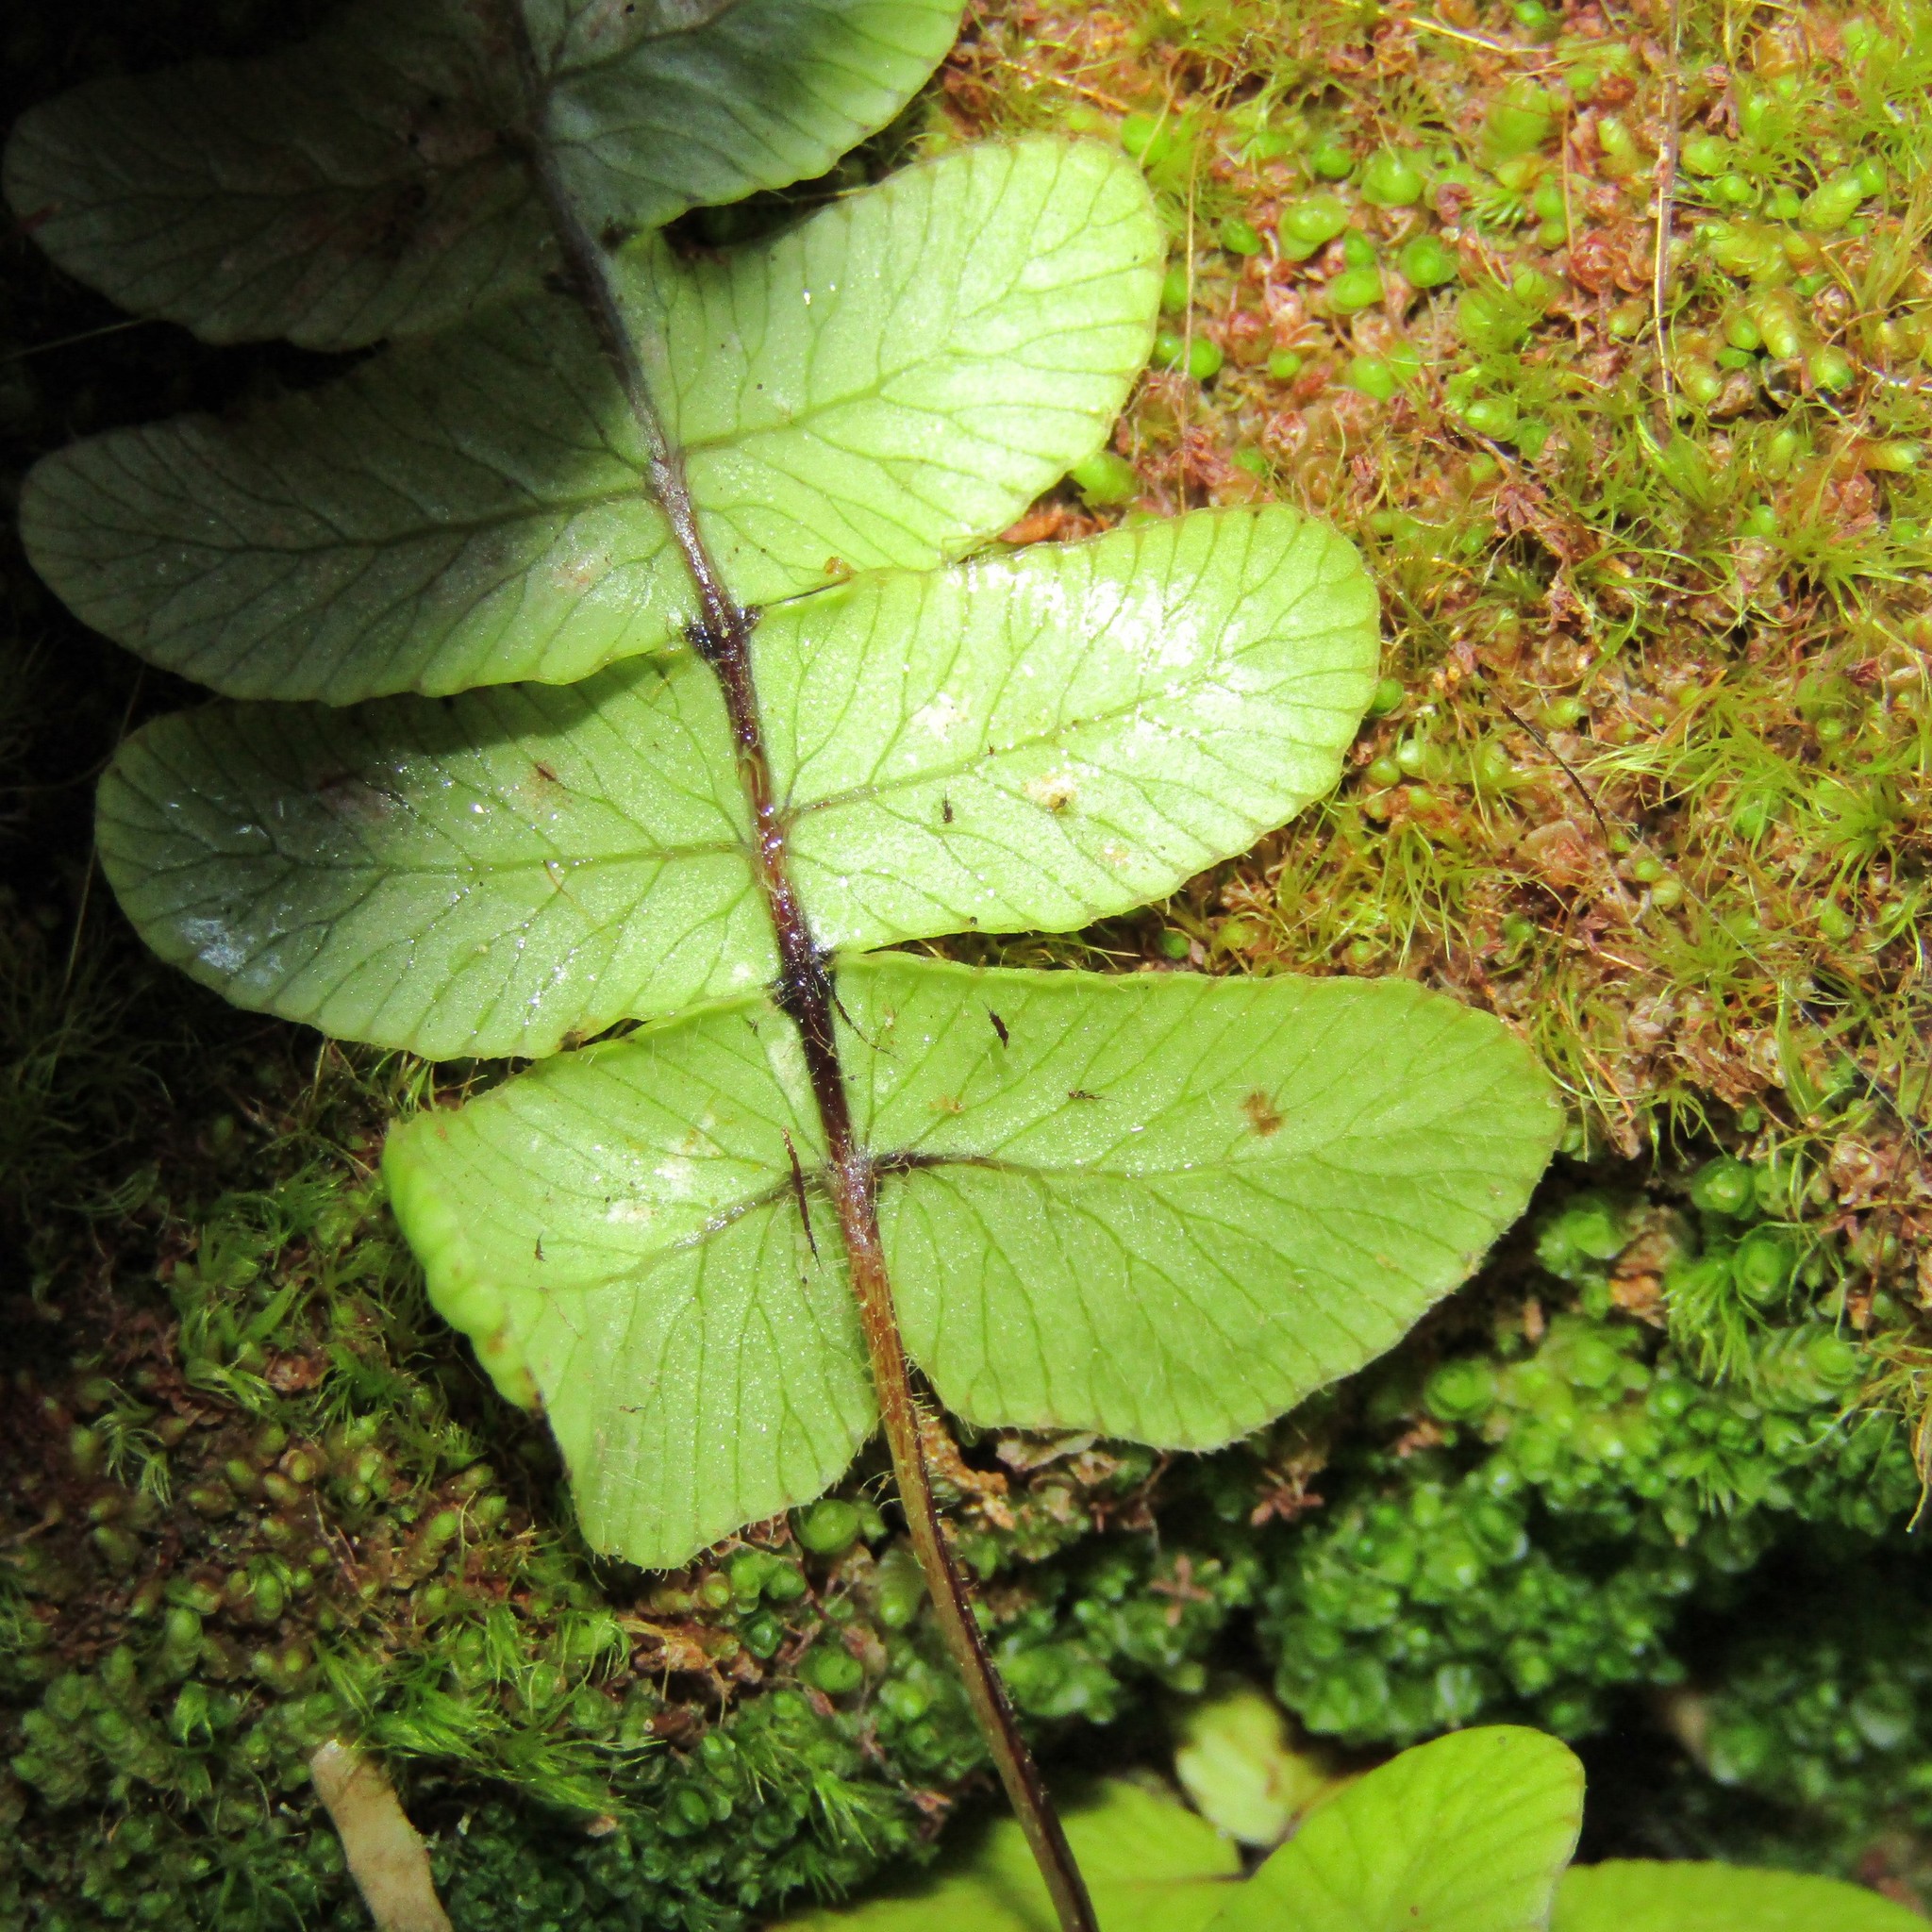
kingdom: Plantae
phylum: Tracheophyta
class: Polypodiopsida
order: Polypodiales
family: Blechnaceae
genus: Cranfillia
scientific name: Cranfillia deltoides
